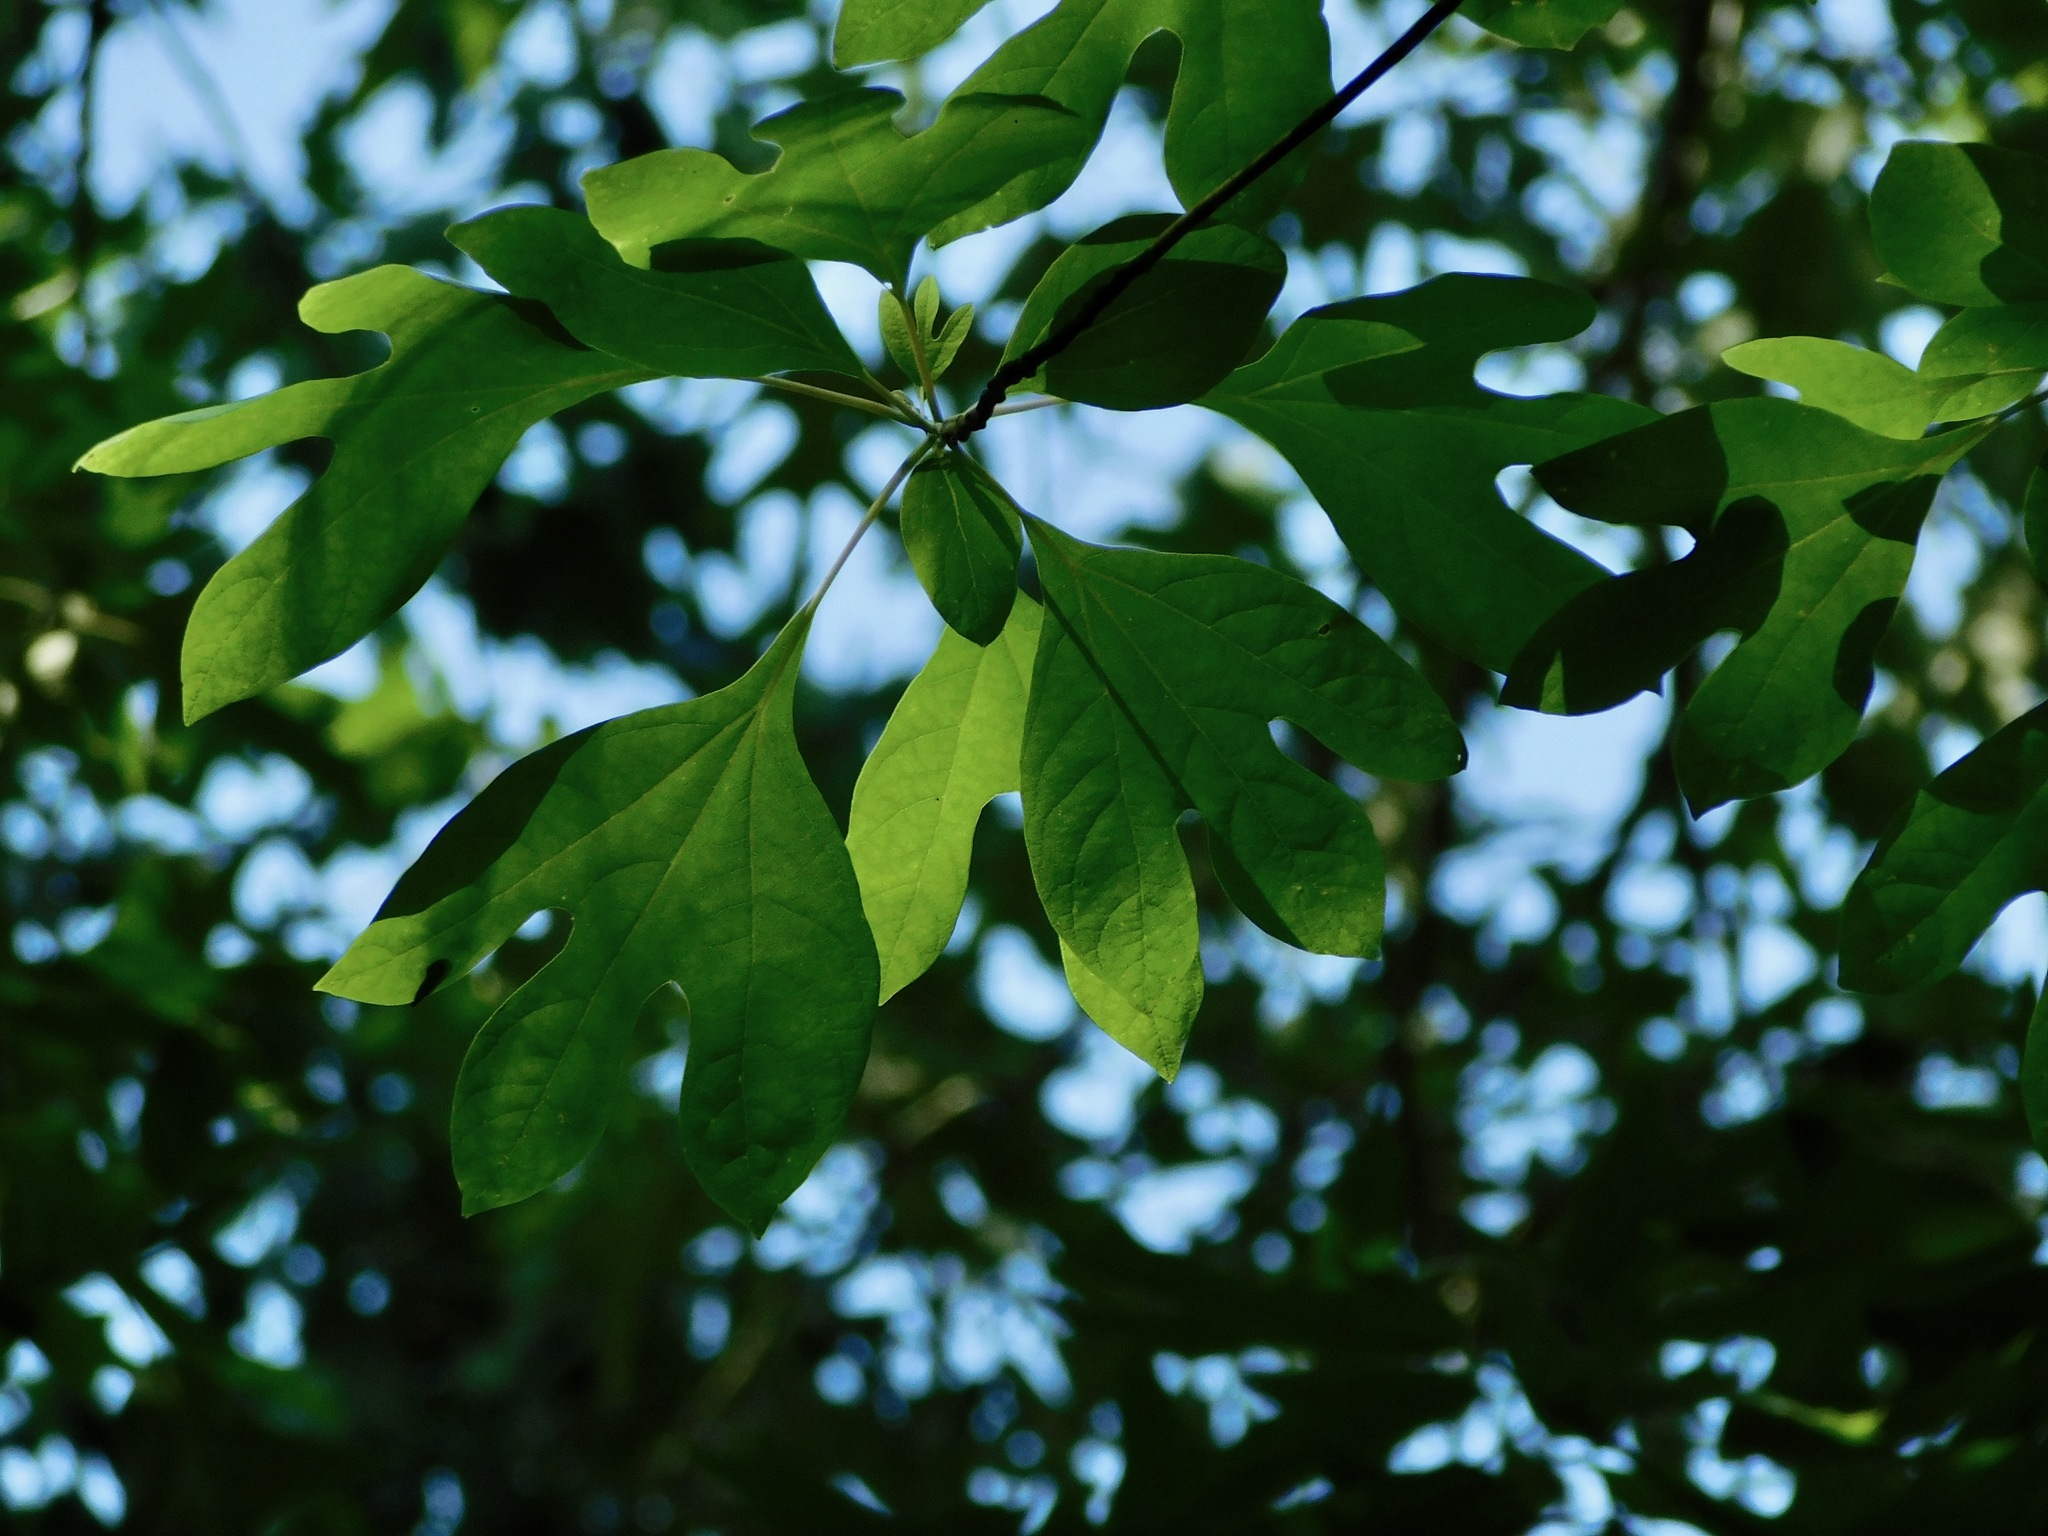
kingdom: Plantae
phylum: Tracheophyta
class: Magnoliopsida
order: Laurales
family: Lauraceae
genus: Sassafras
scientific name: Sassafras albidum
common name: Sassafras
